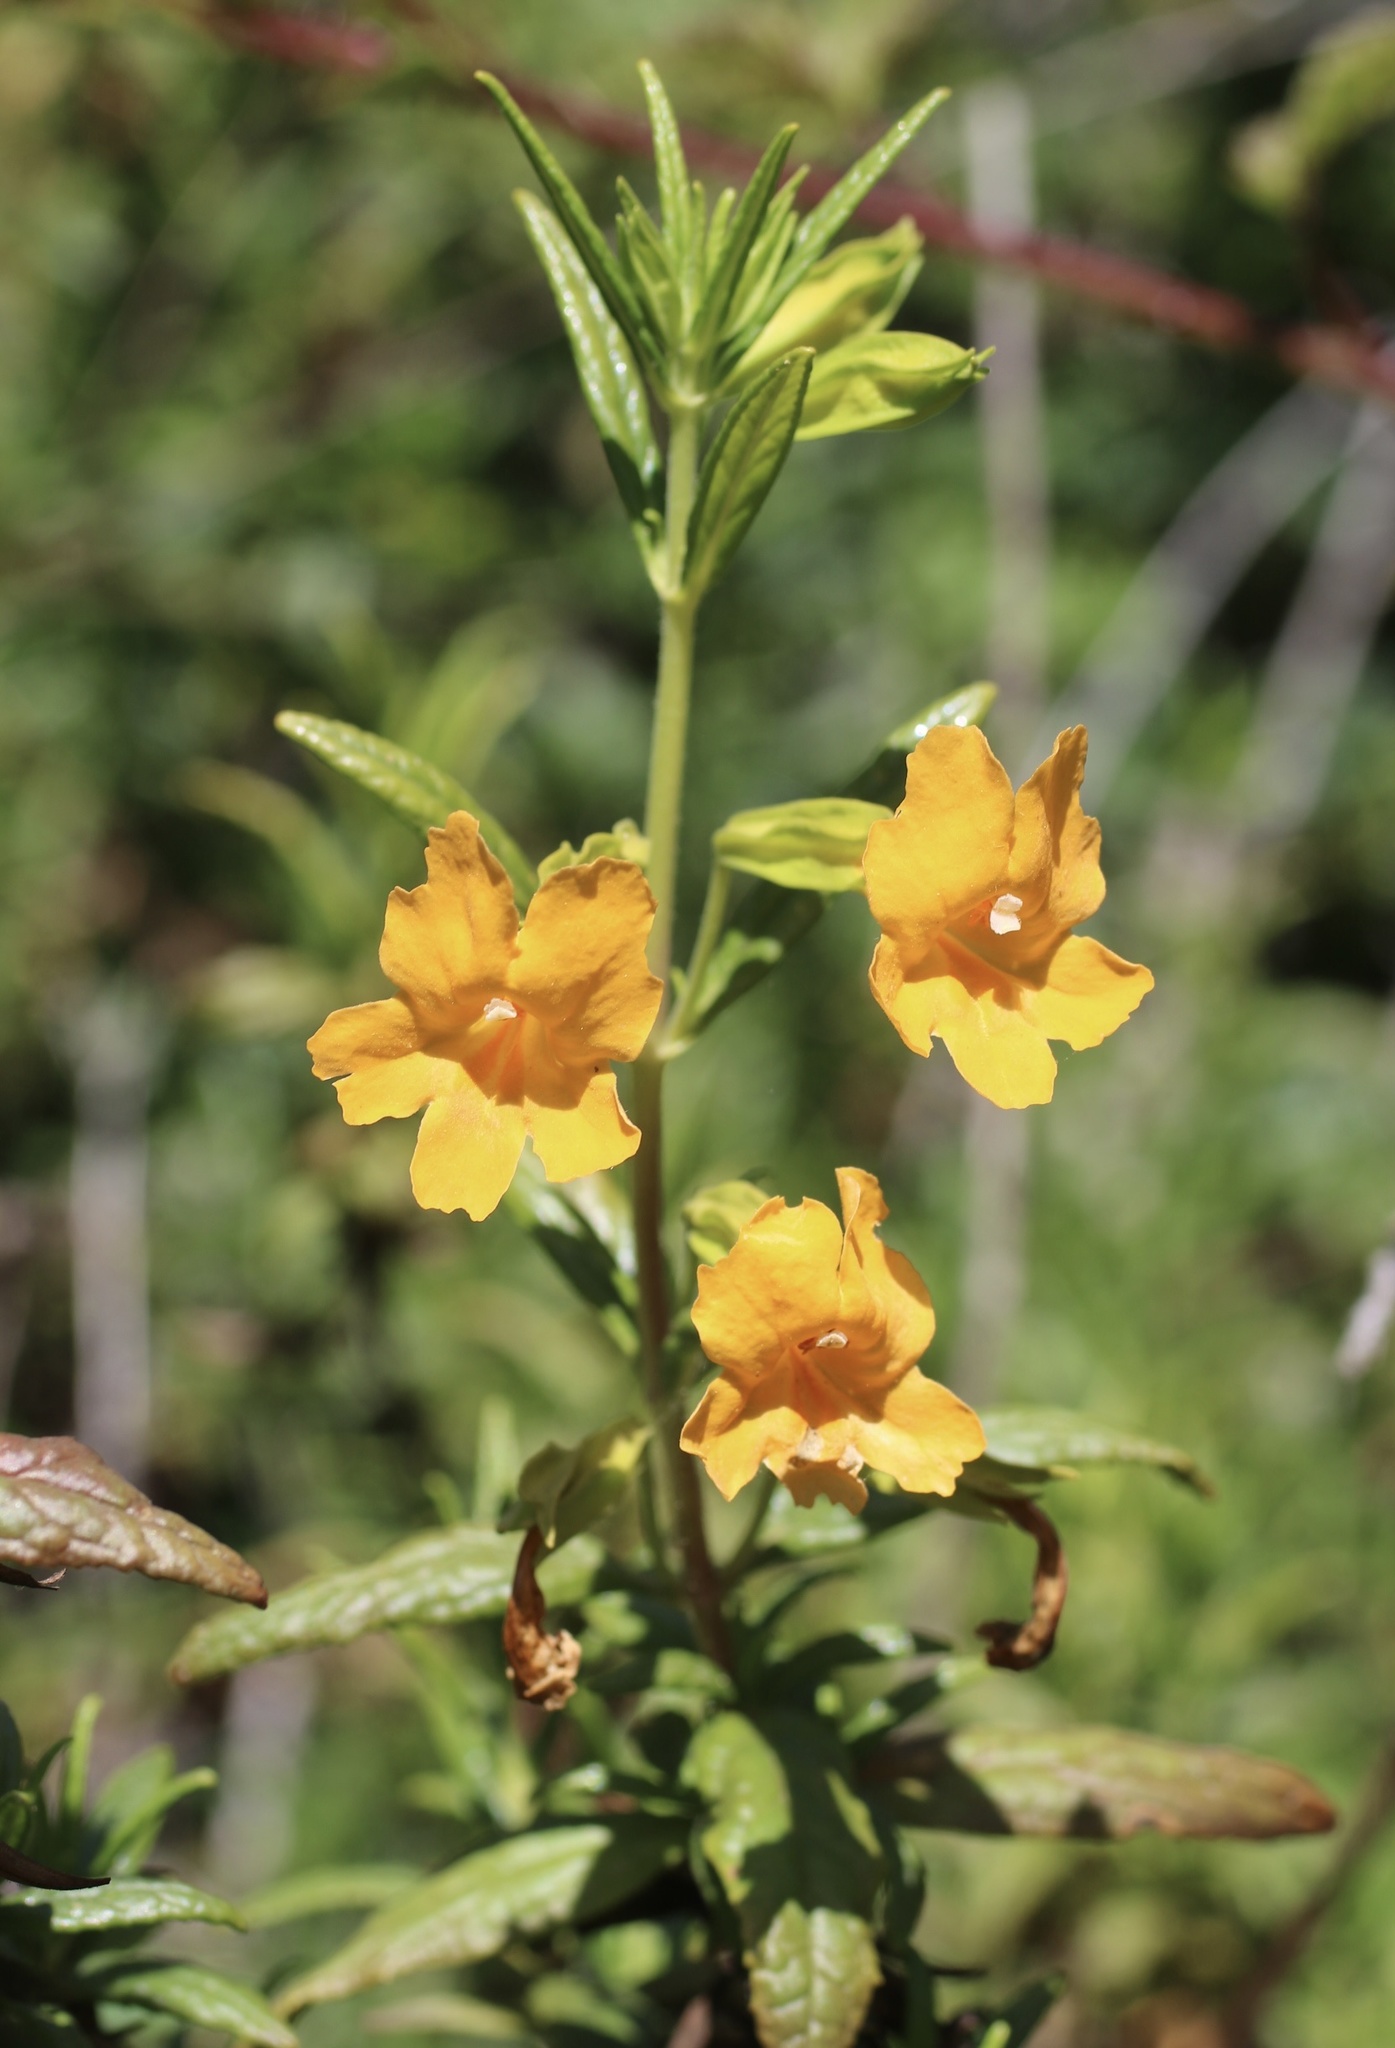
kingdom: Plantae
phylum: Tracheophyta
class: Magnoliopsida
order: Lamiales
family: Phrymaceae
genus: Diplacus
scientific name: Diplacus aurantiacus
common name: Bush monkey-flower
